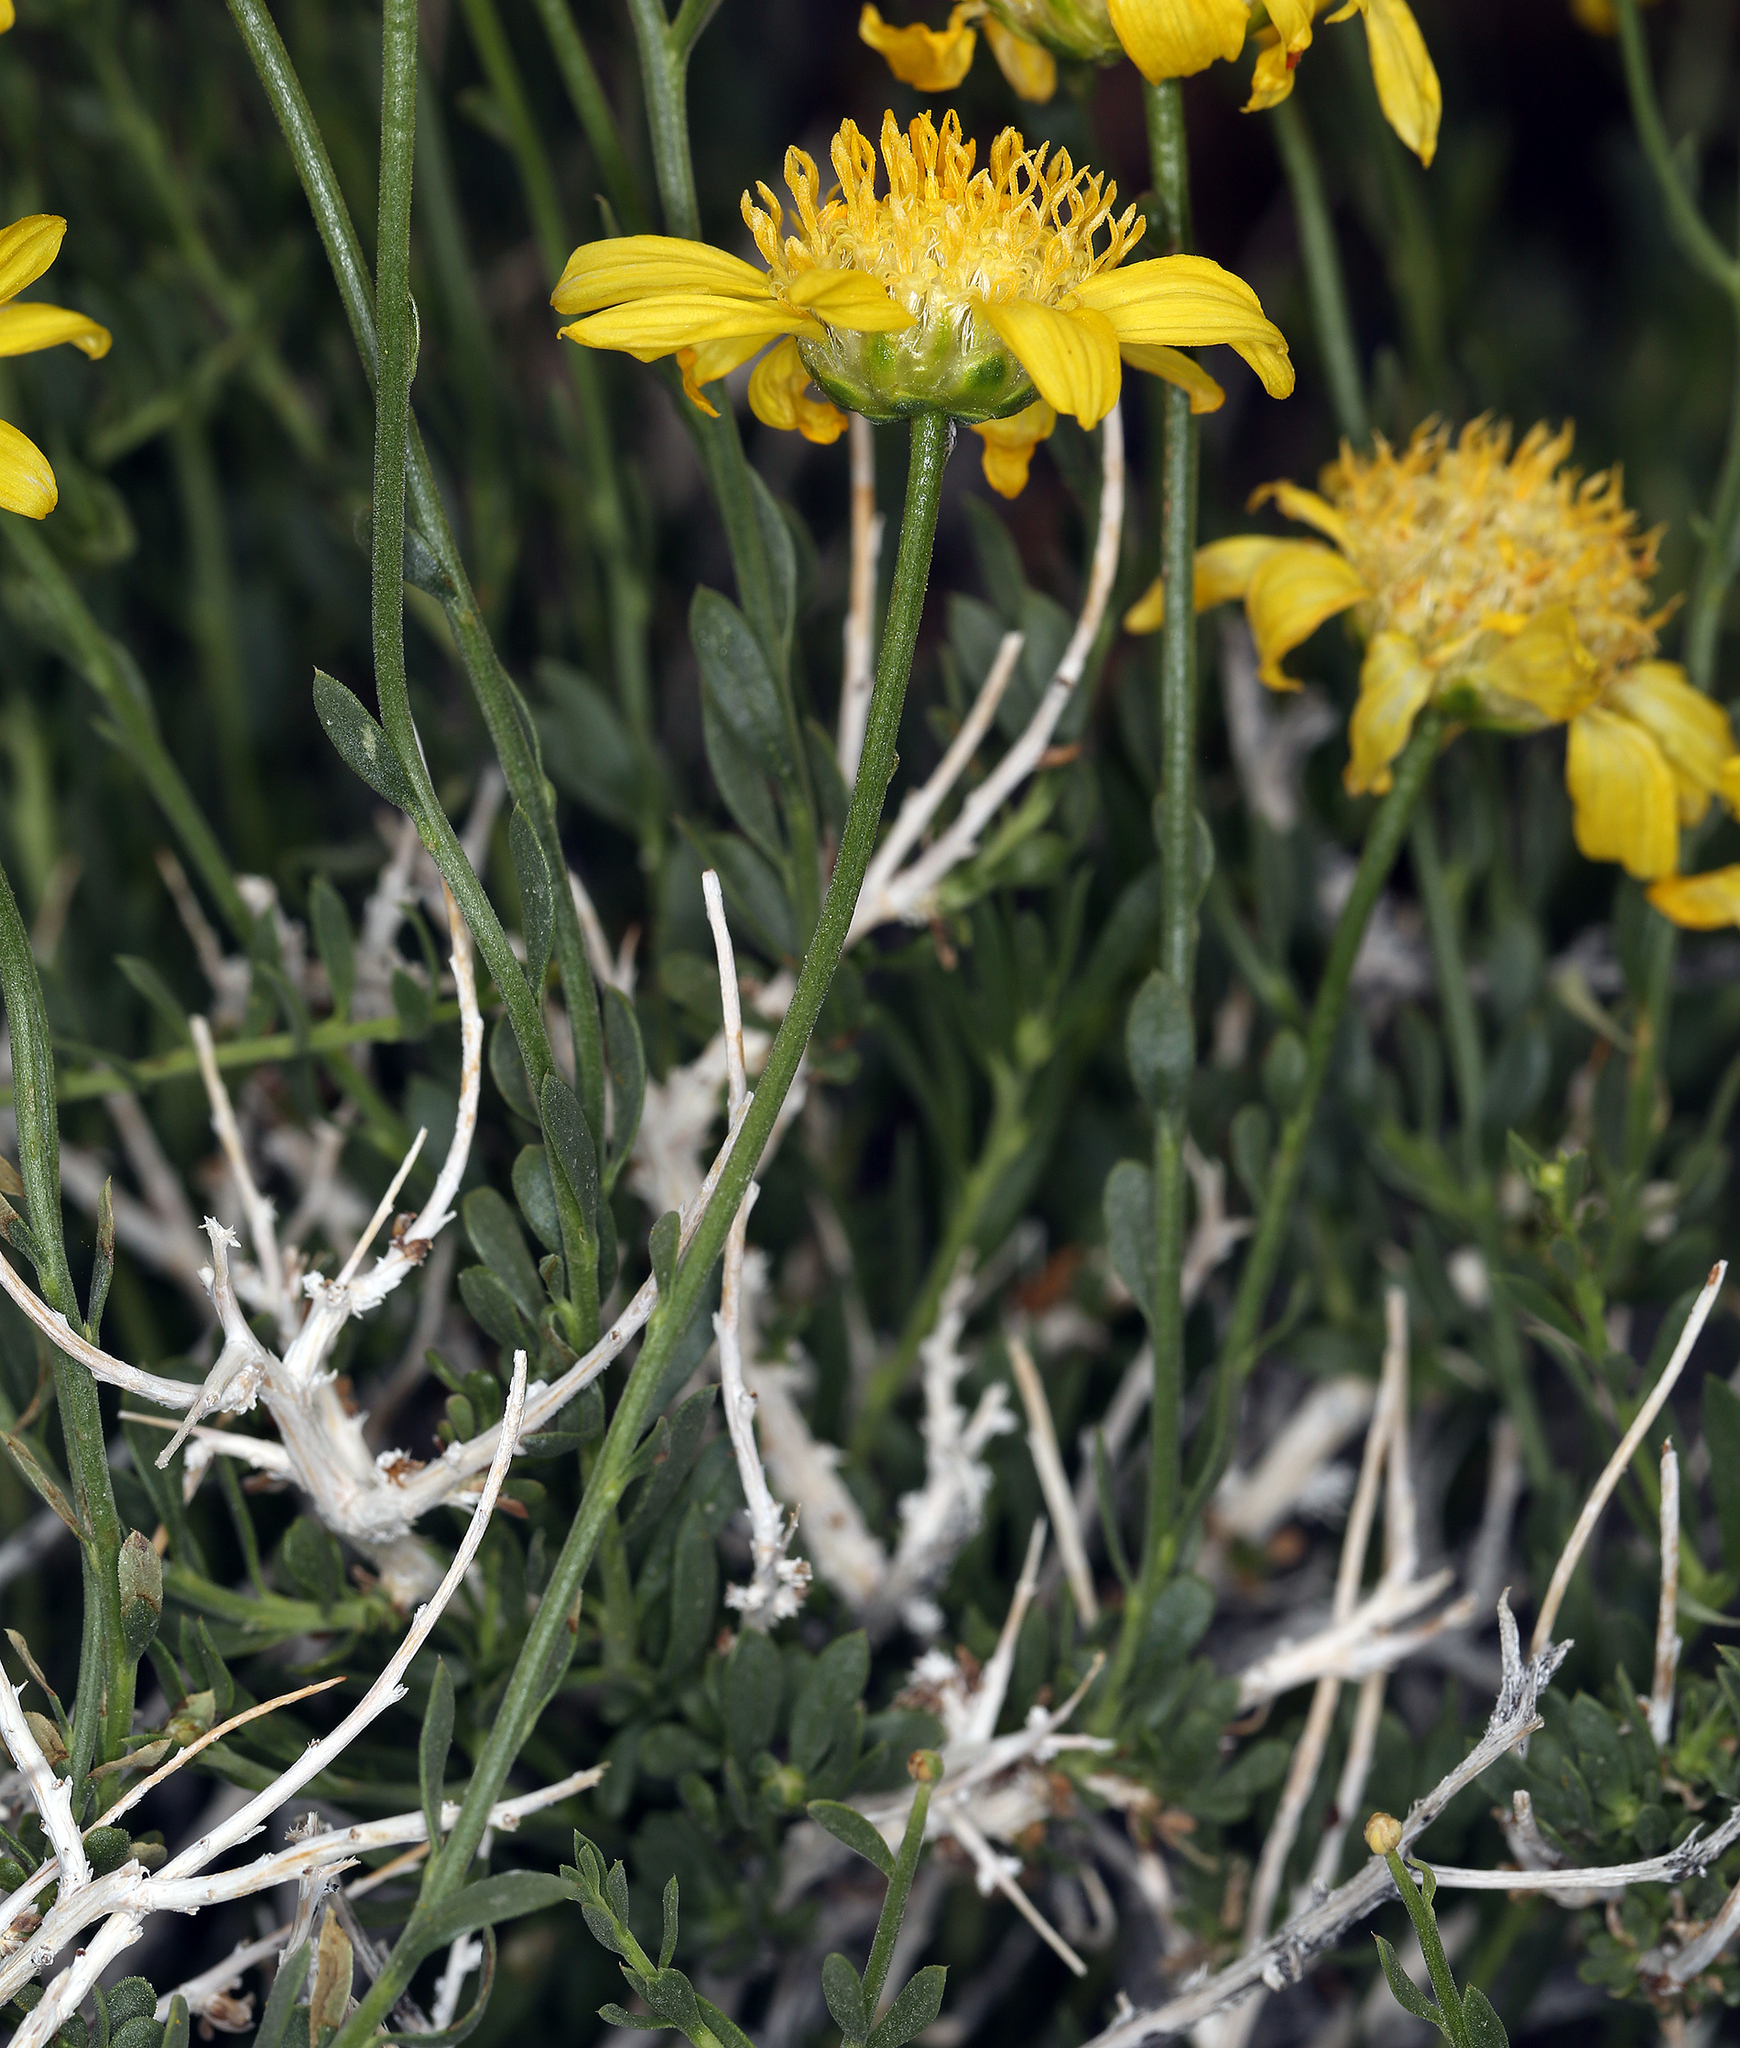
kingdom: Plantae
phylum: Tracheophyta
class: Magnoliopsida
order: Asterales
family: Asteraceae
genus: Acamptopappus
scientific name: Acamptopappus shockleyi
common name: Shockley's goldenhead
